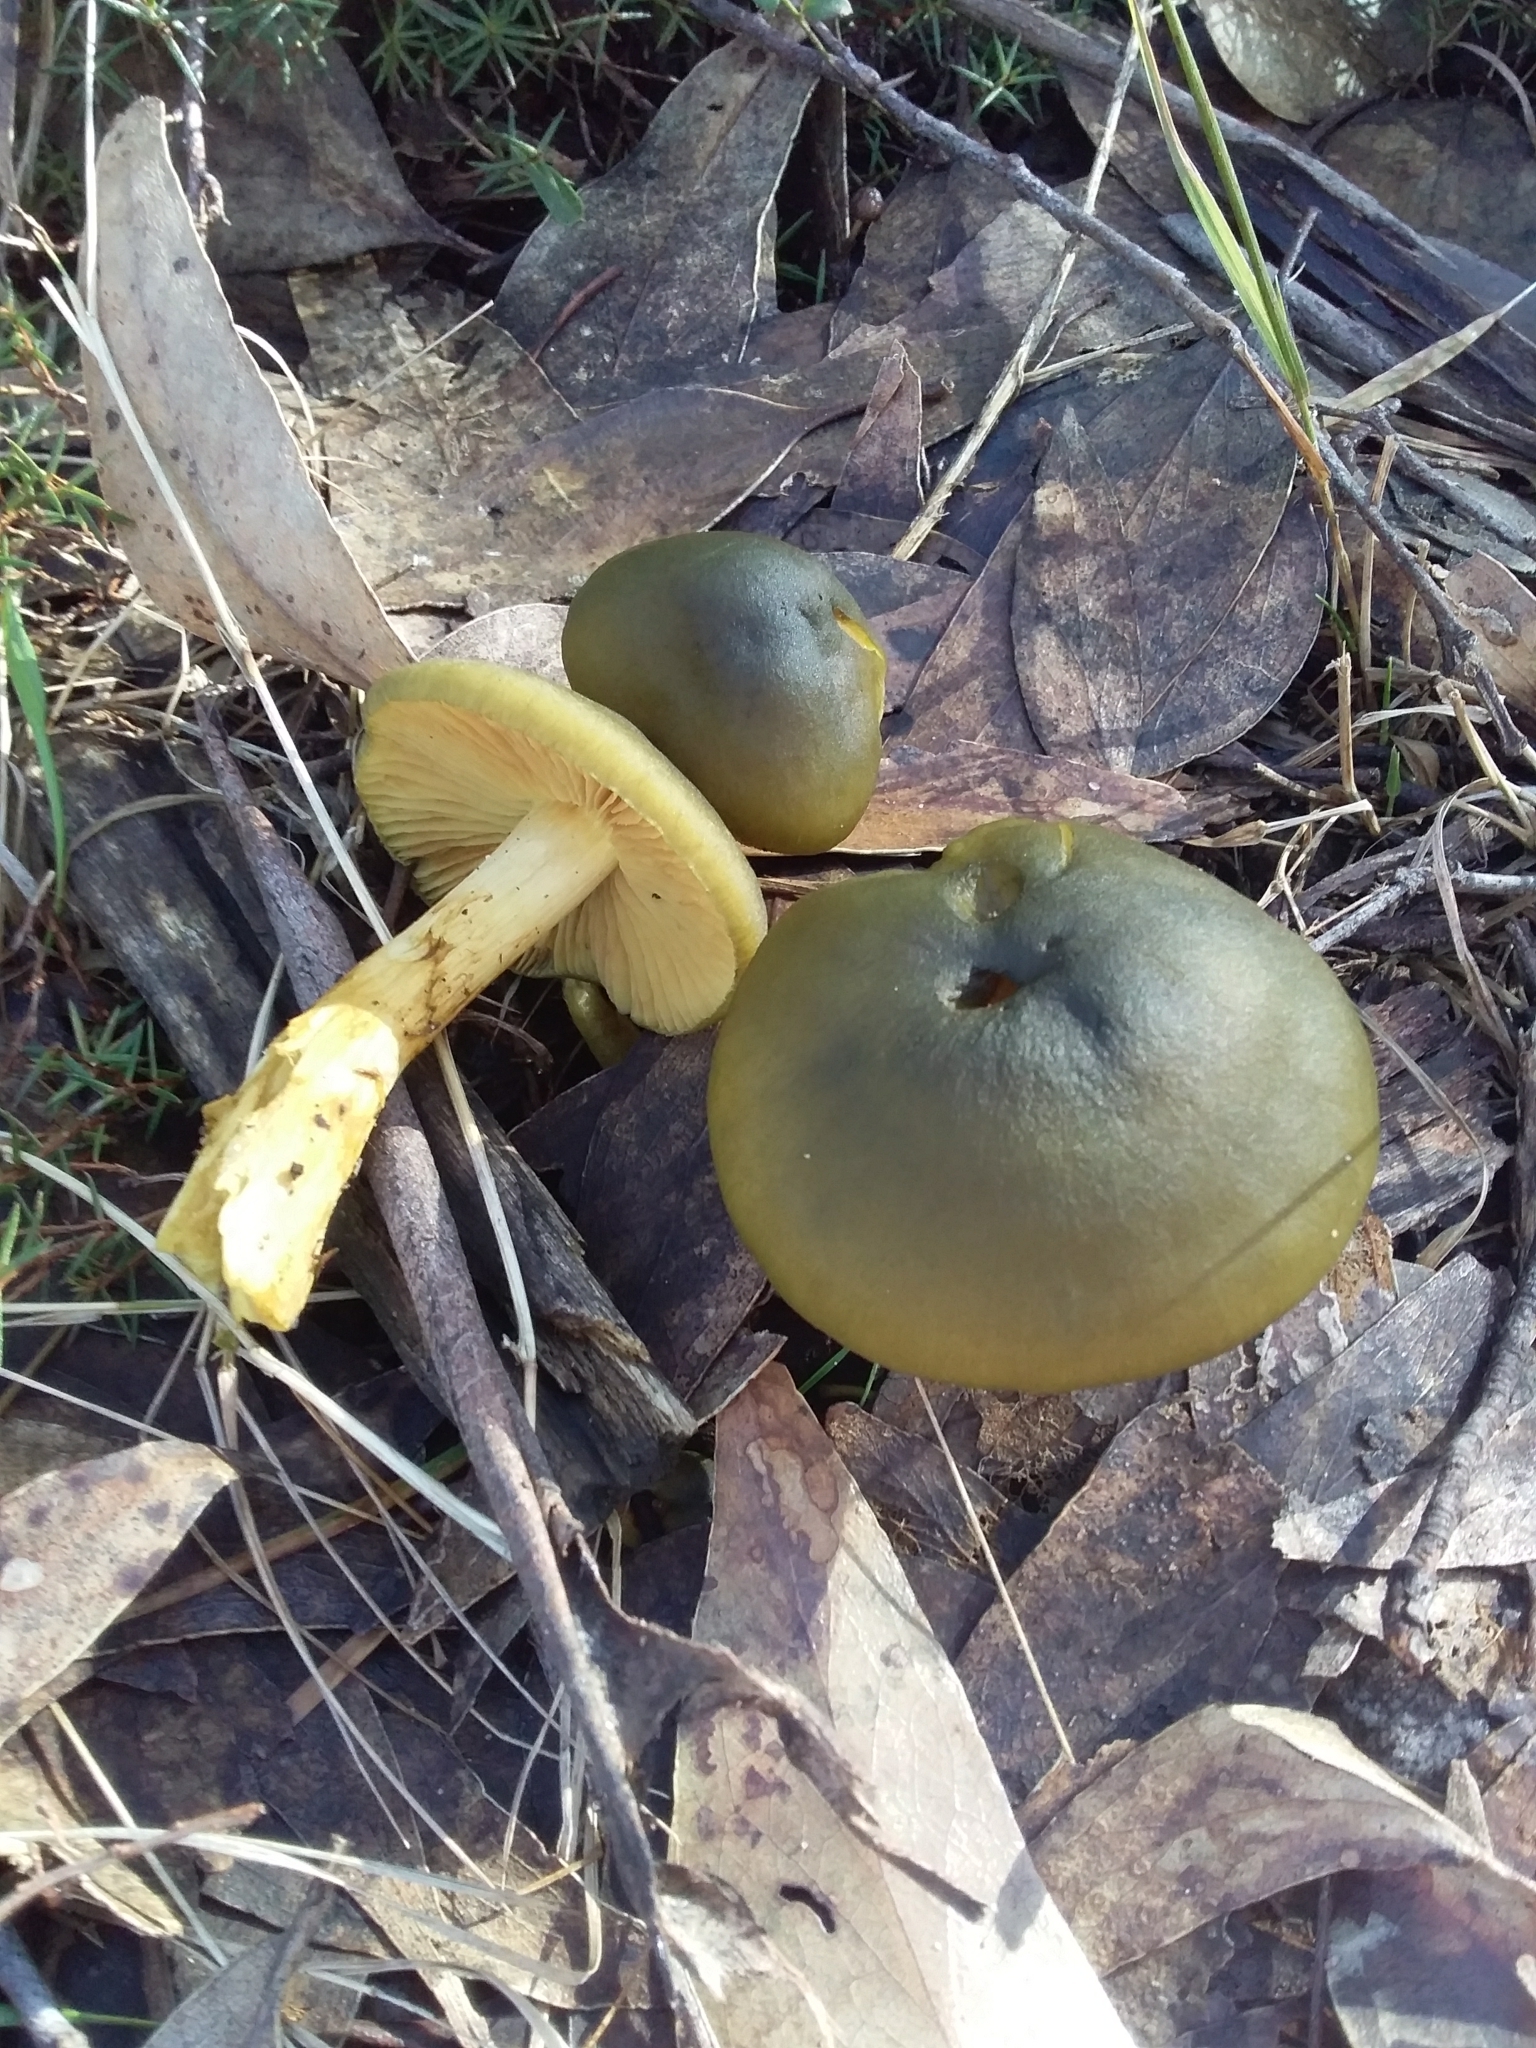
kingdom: Fungi
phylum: Basidiomycota
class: Agaricomycetes
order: Agaricales
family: Cortinariaceae
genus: Cortinarius
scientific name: Cortinarius austrovenetus
